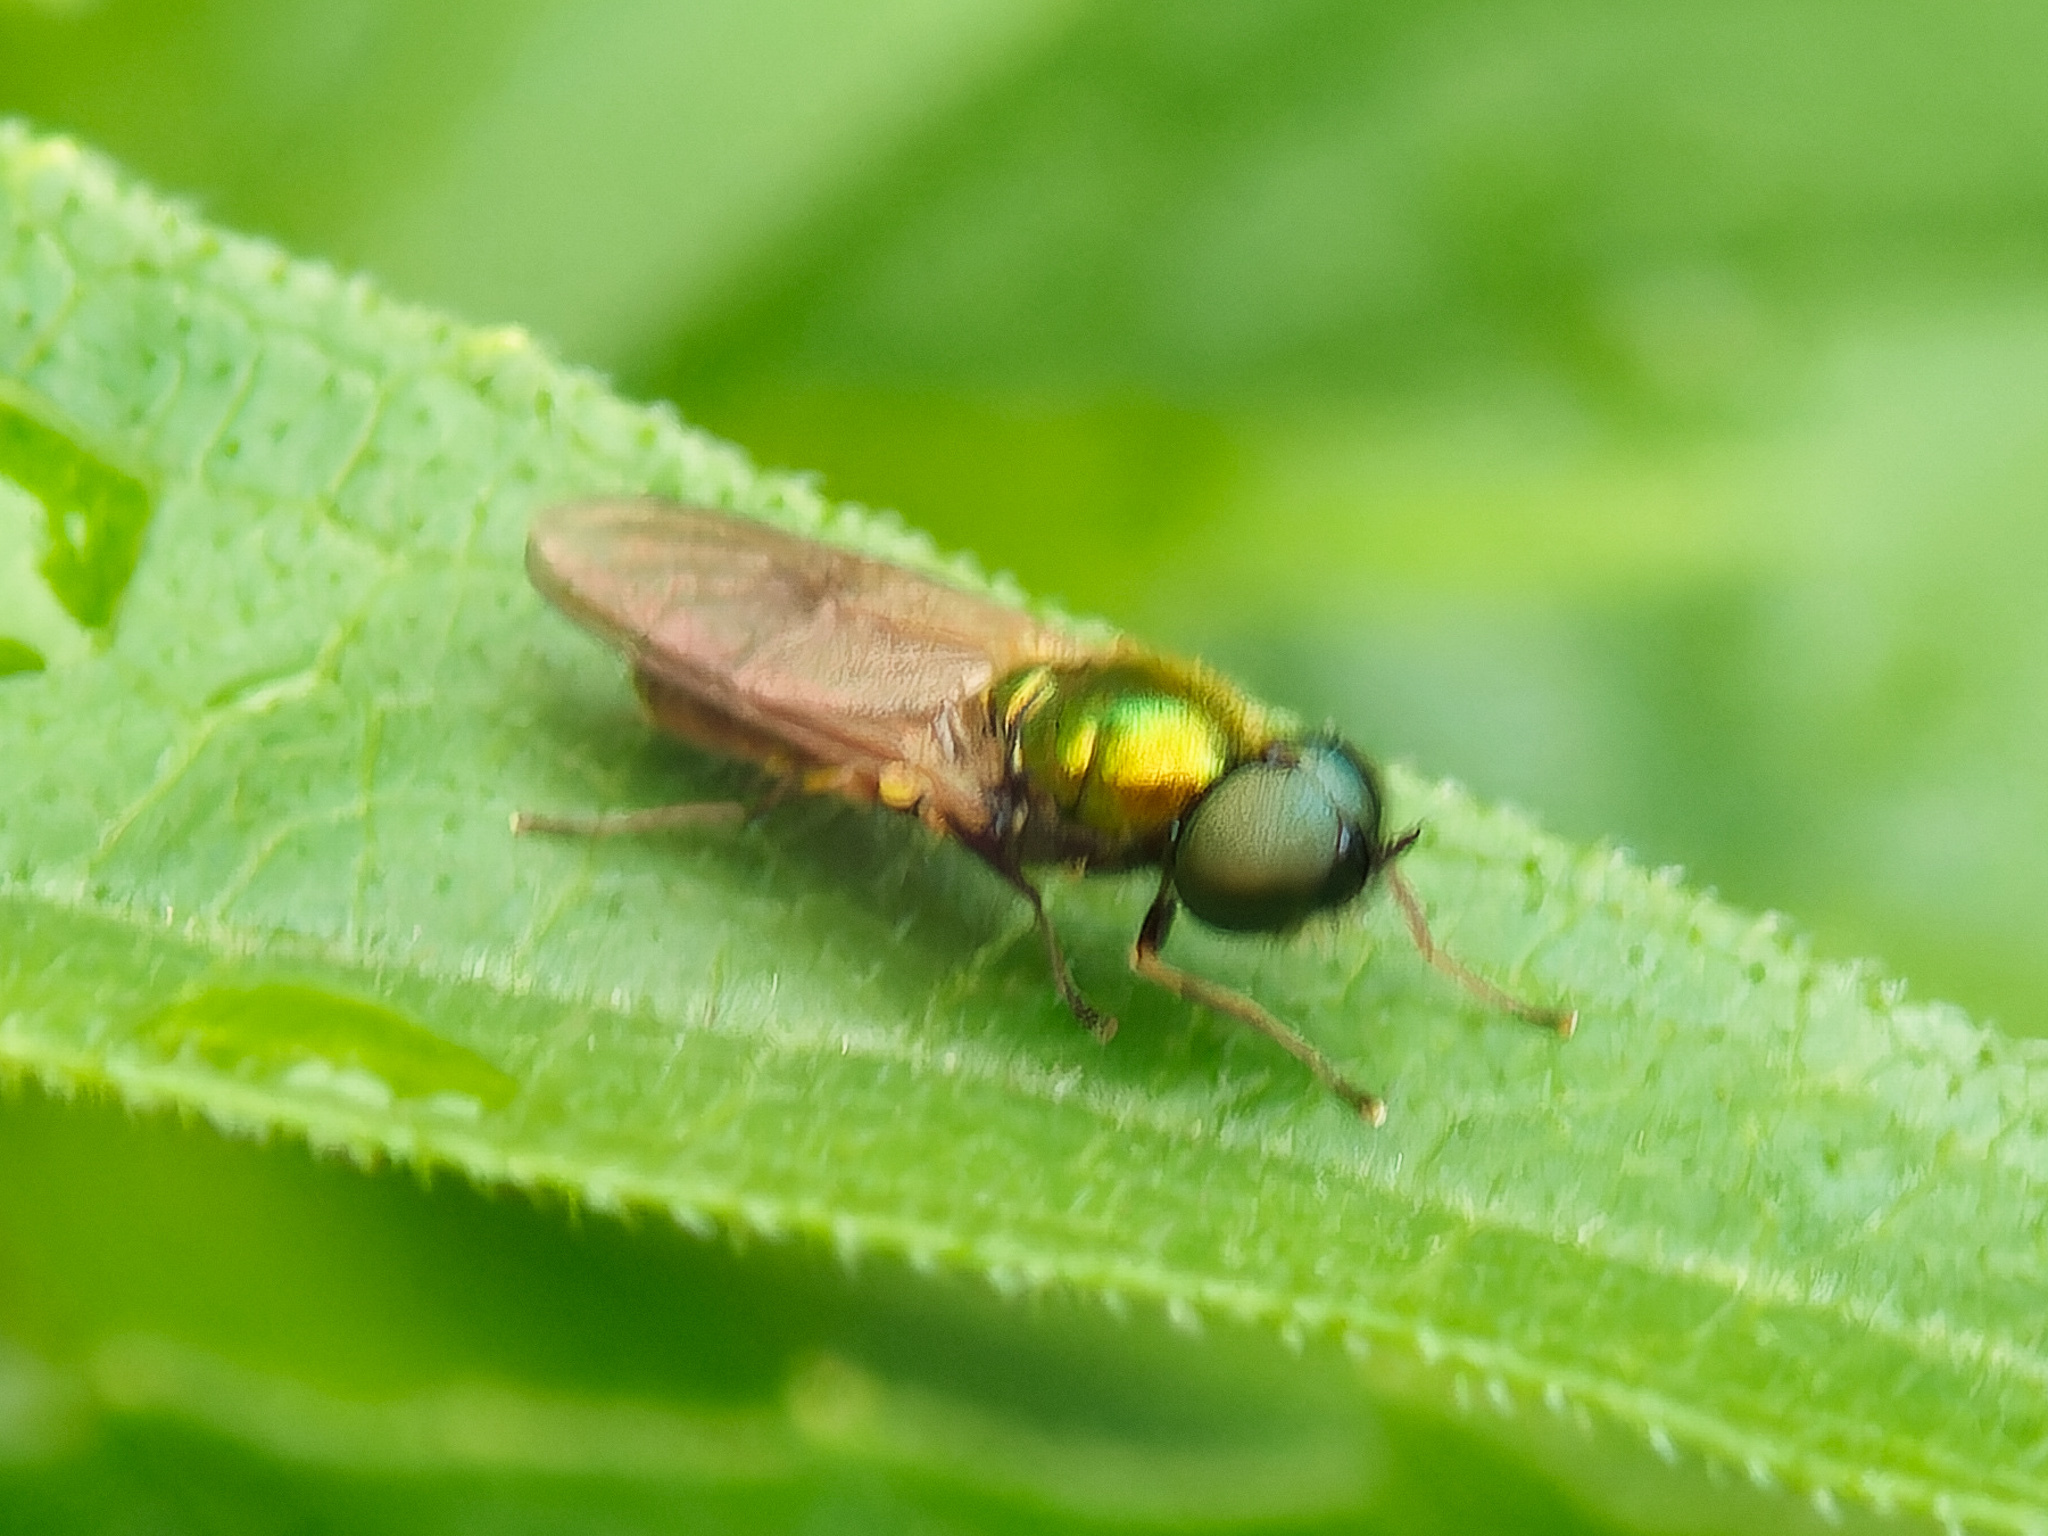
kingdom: Animalia
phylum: Arthropoda
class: Insecta
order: Diptera
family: Stratiomyidae
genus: Chloromyia
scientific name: Chloromyia formosa
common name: Soldier fly
